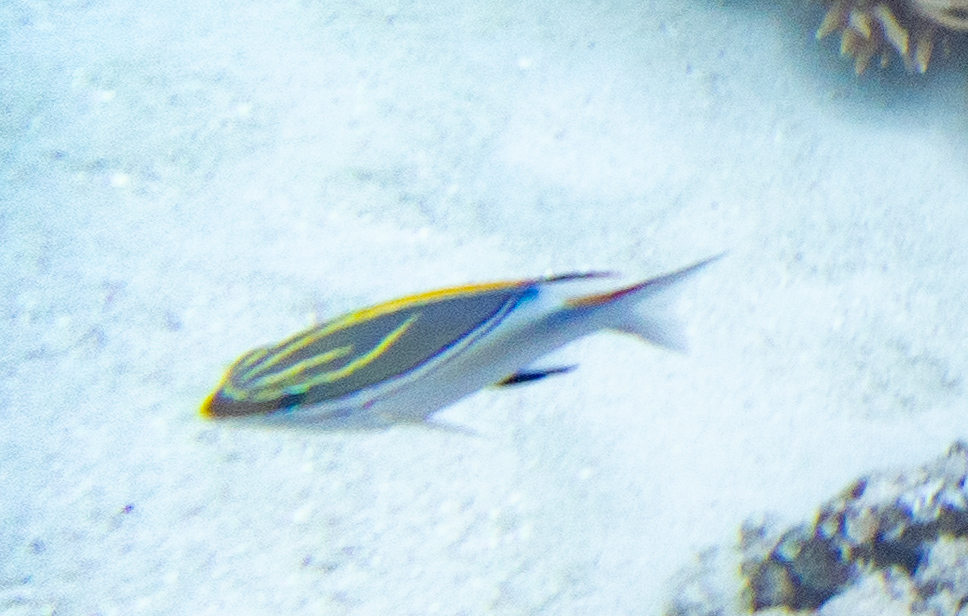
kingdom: Animalia
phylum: Chordata
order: Perciformes
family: Nemipteridae
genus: Scolopsis
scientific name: Scolopsis bilineata
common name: Two-lined monocle bream
